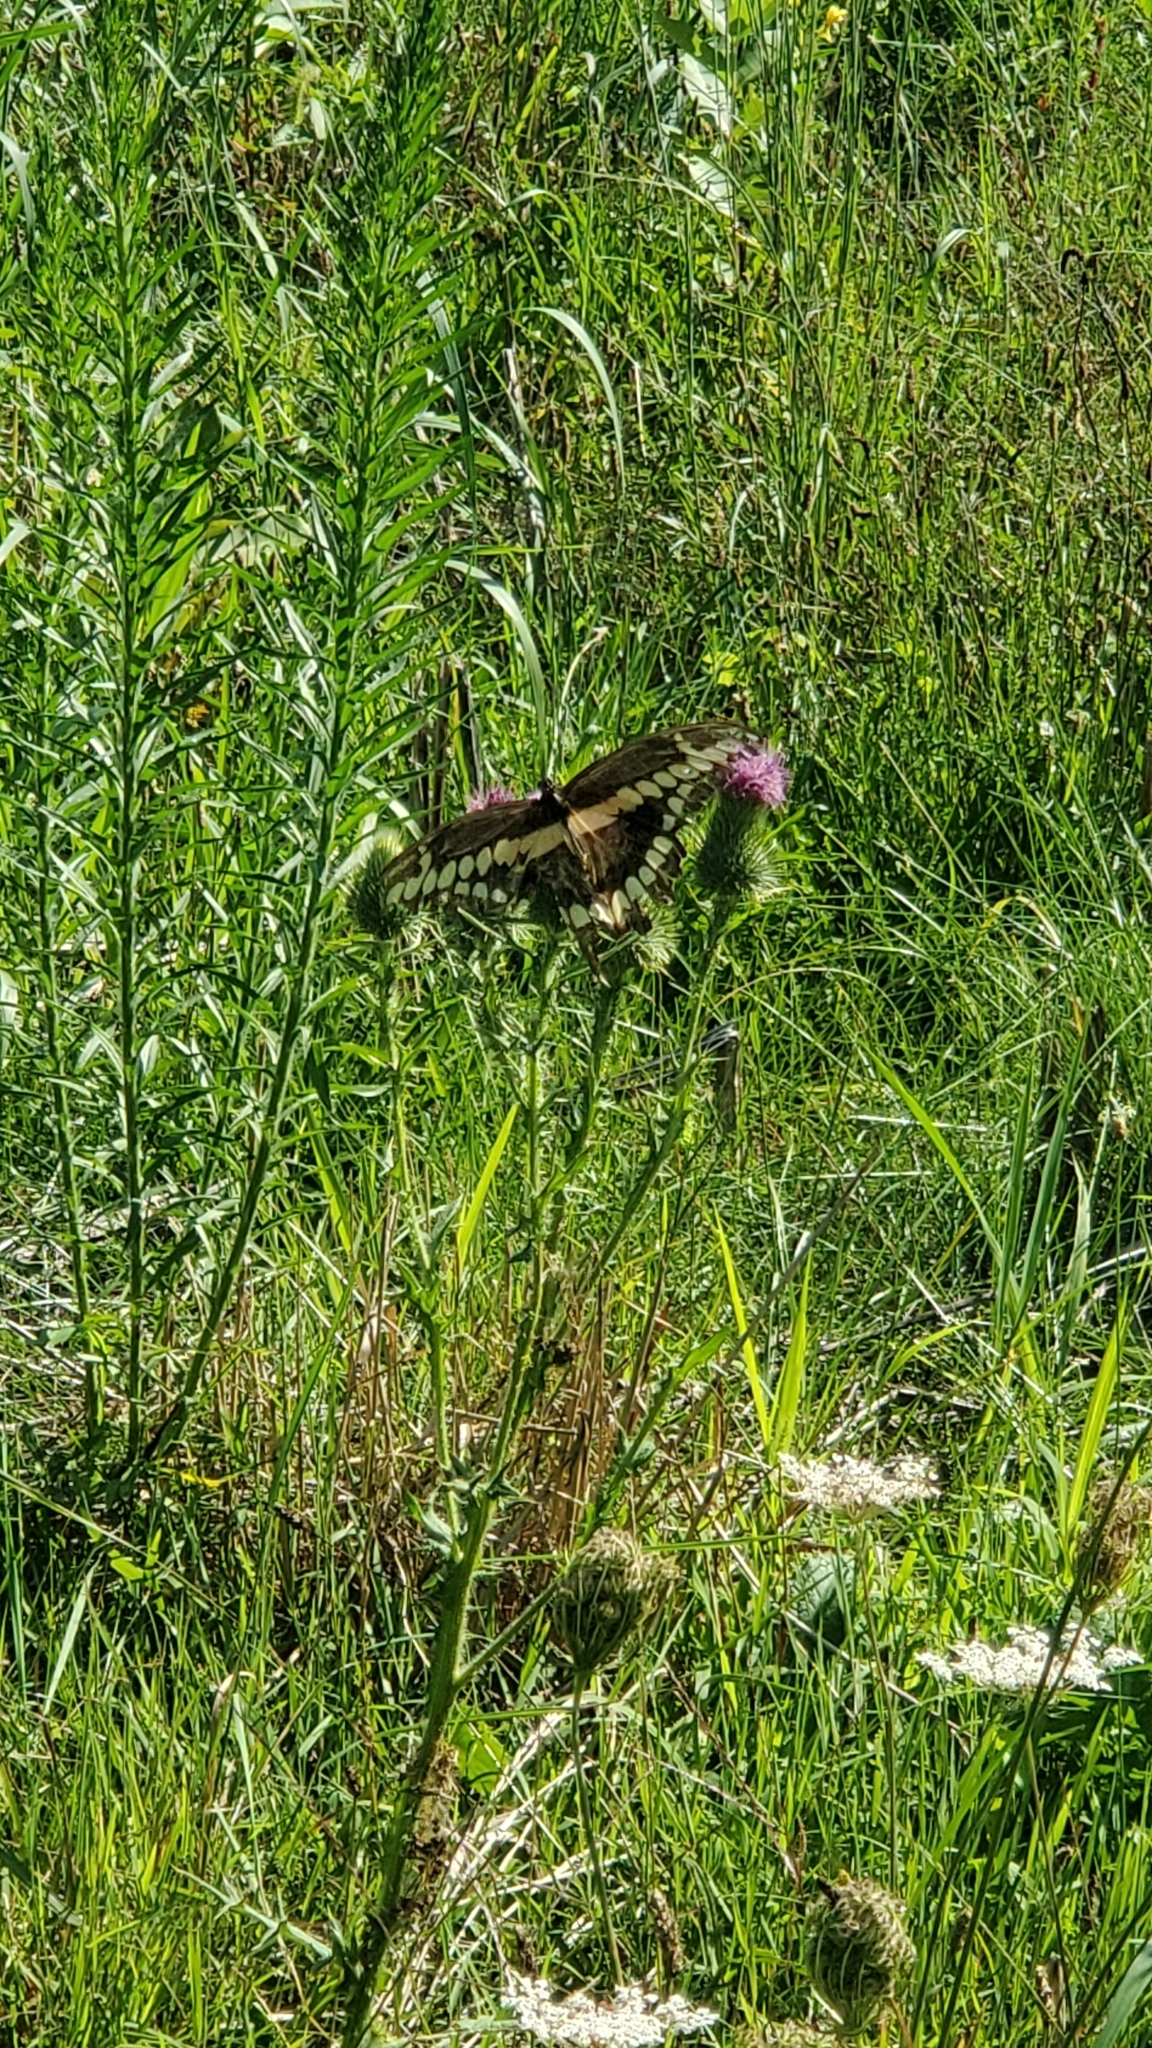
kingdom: Animalia
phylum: Arthropoda
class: Insecta
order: Lepidoptera
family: Papilionidae
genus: Papilio
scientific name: Papilio cresphontes
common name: Giant swallowtail
